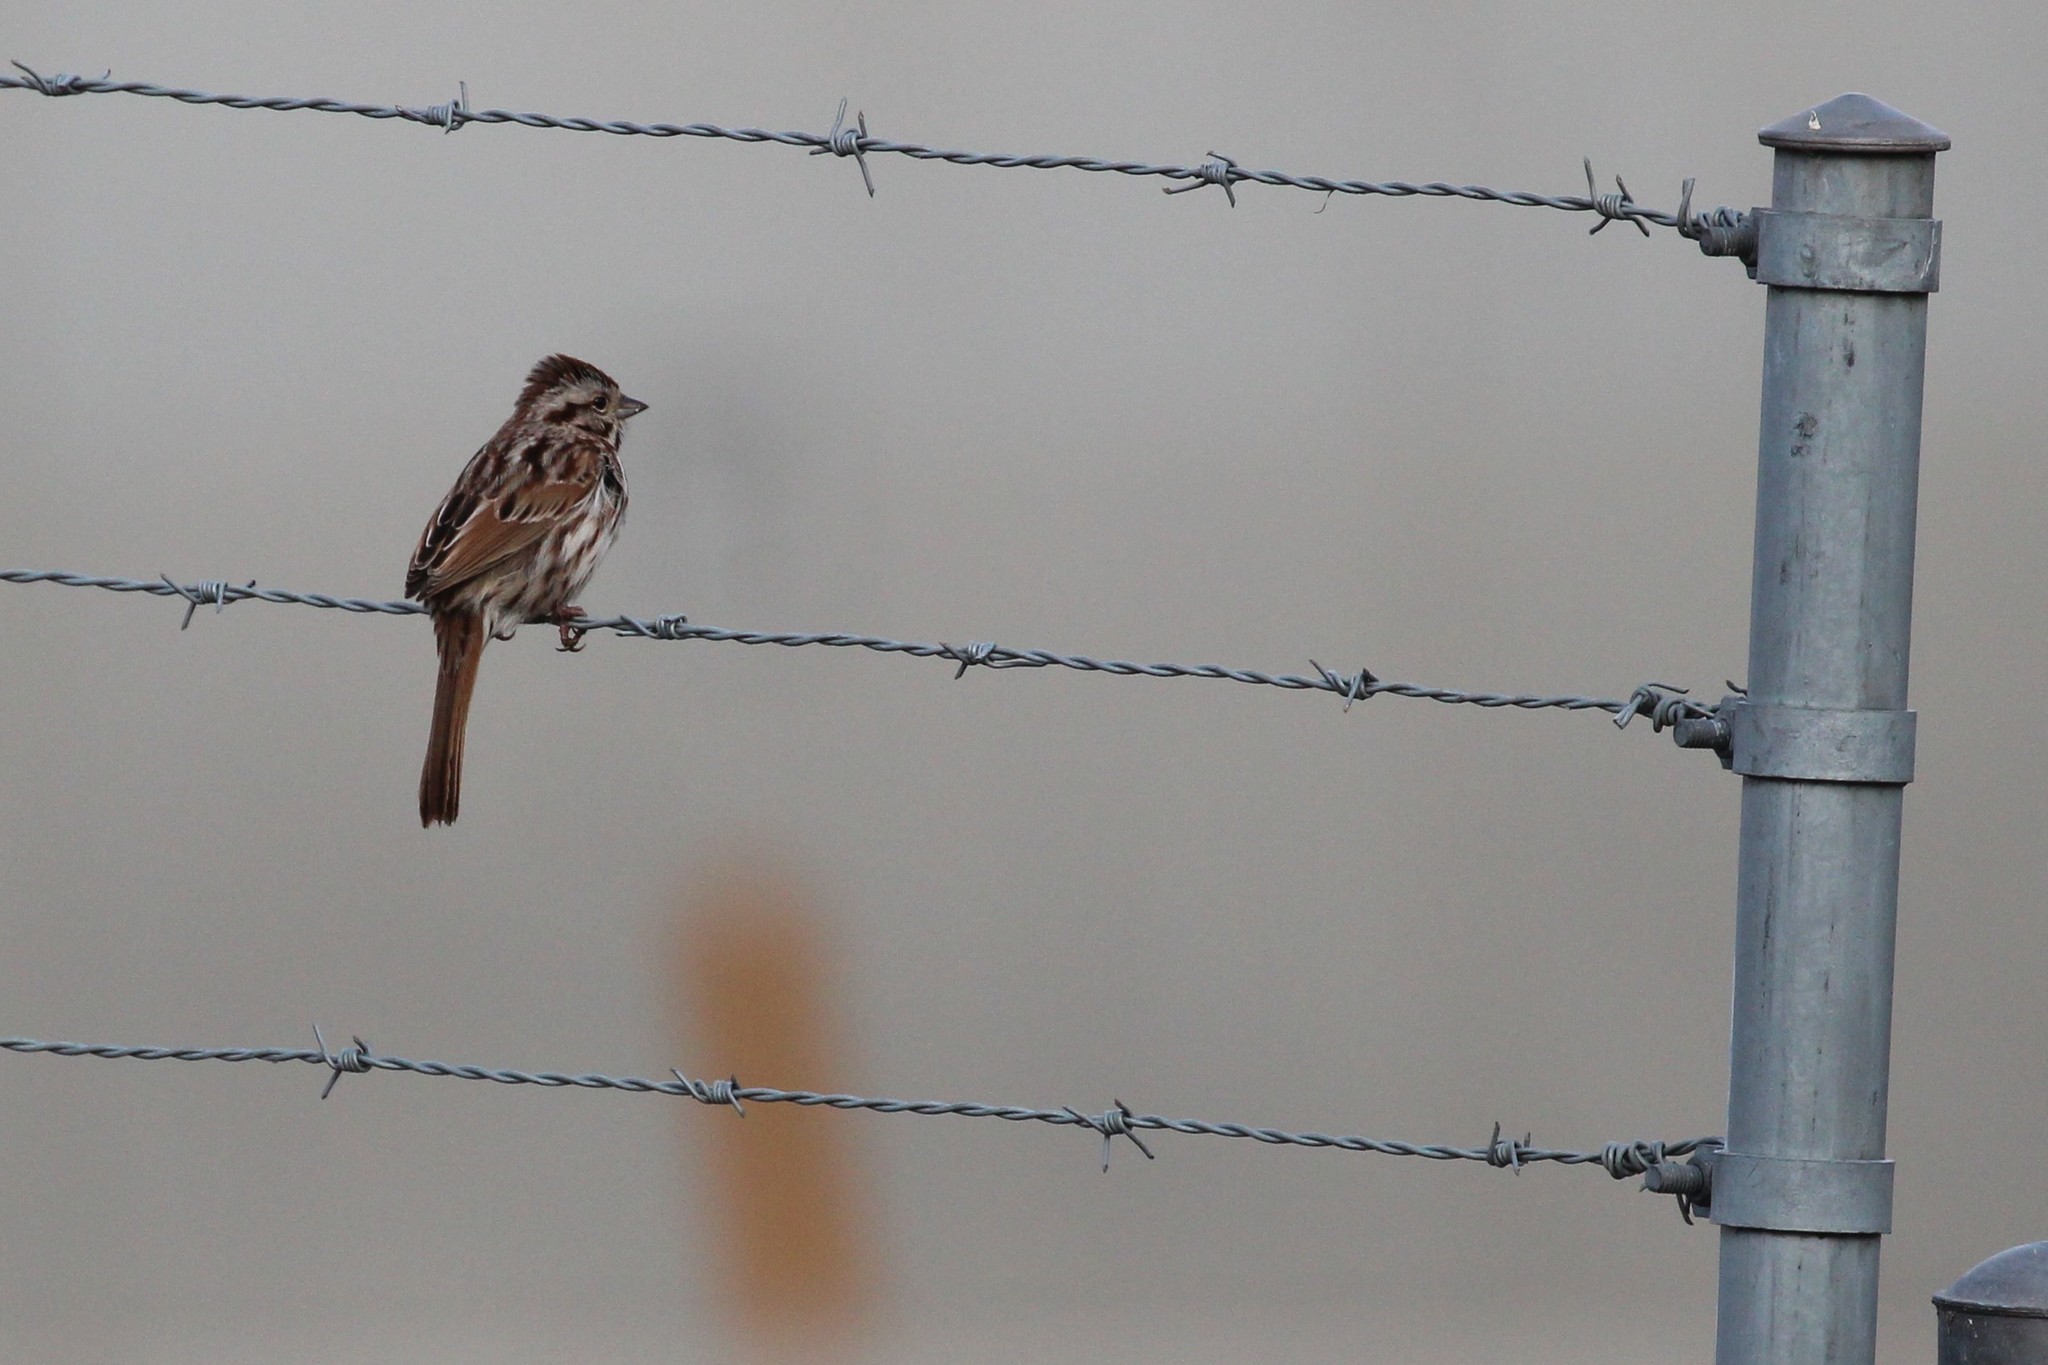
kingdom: Animalia
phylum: Chordata
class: Aves
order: Passeriformes
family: Passerellidae
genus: Melospiza
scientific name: Melospiza melodia
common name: Song sparrow
